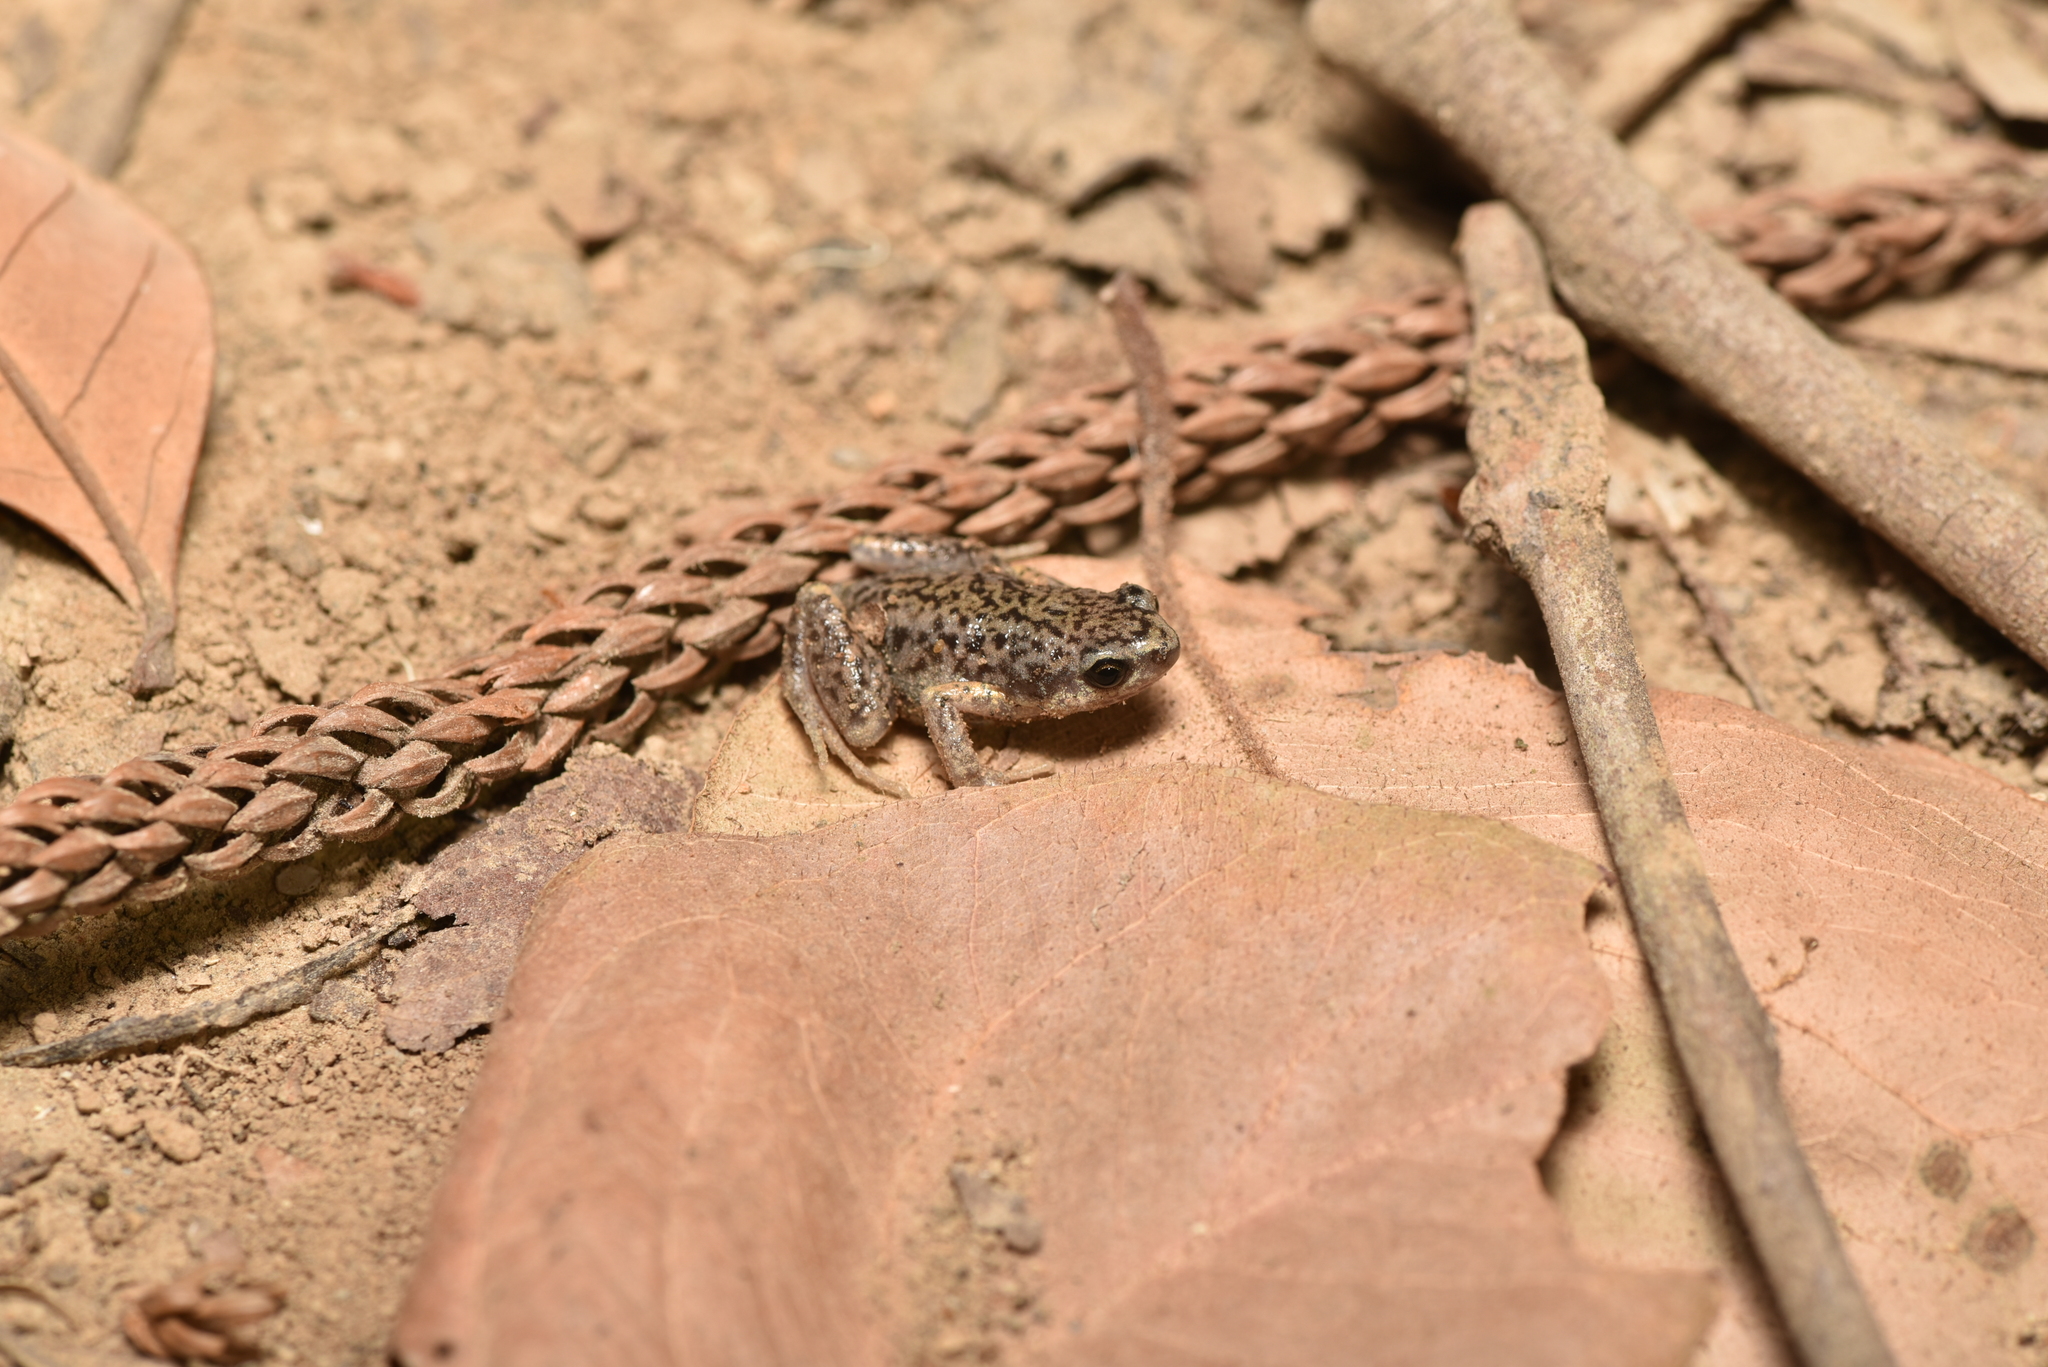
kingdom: Animalia
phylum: Chordata
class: Amphibia
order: Anura
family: Microhylidae
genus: Micryletta
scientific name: Micryletta steinegeri
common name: Stejneger's paddy frog
